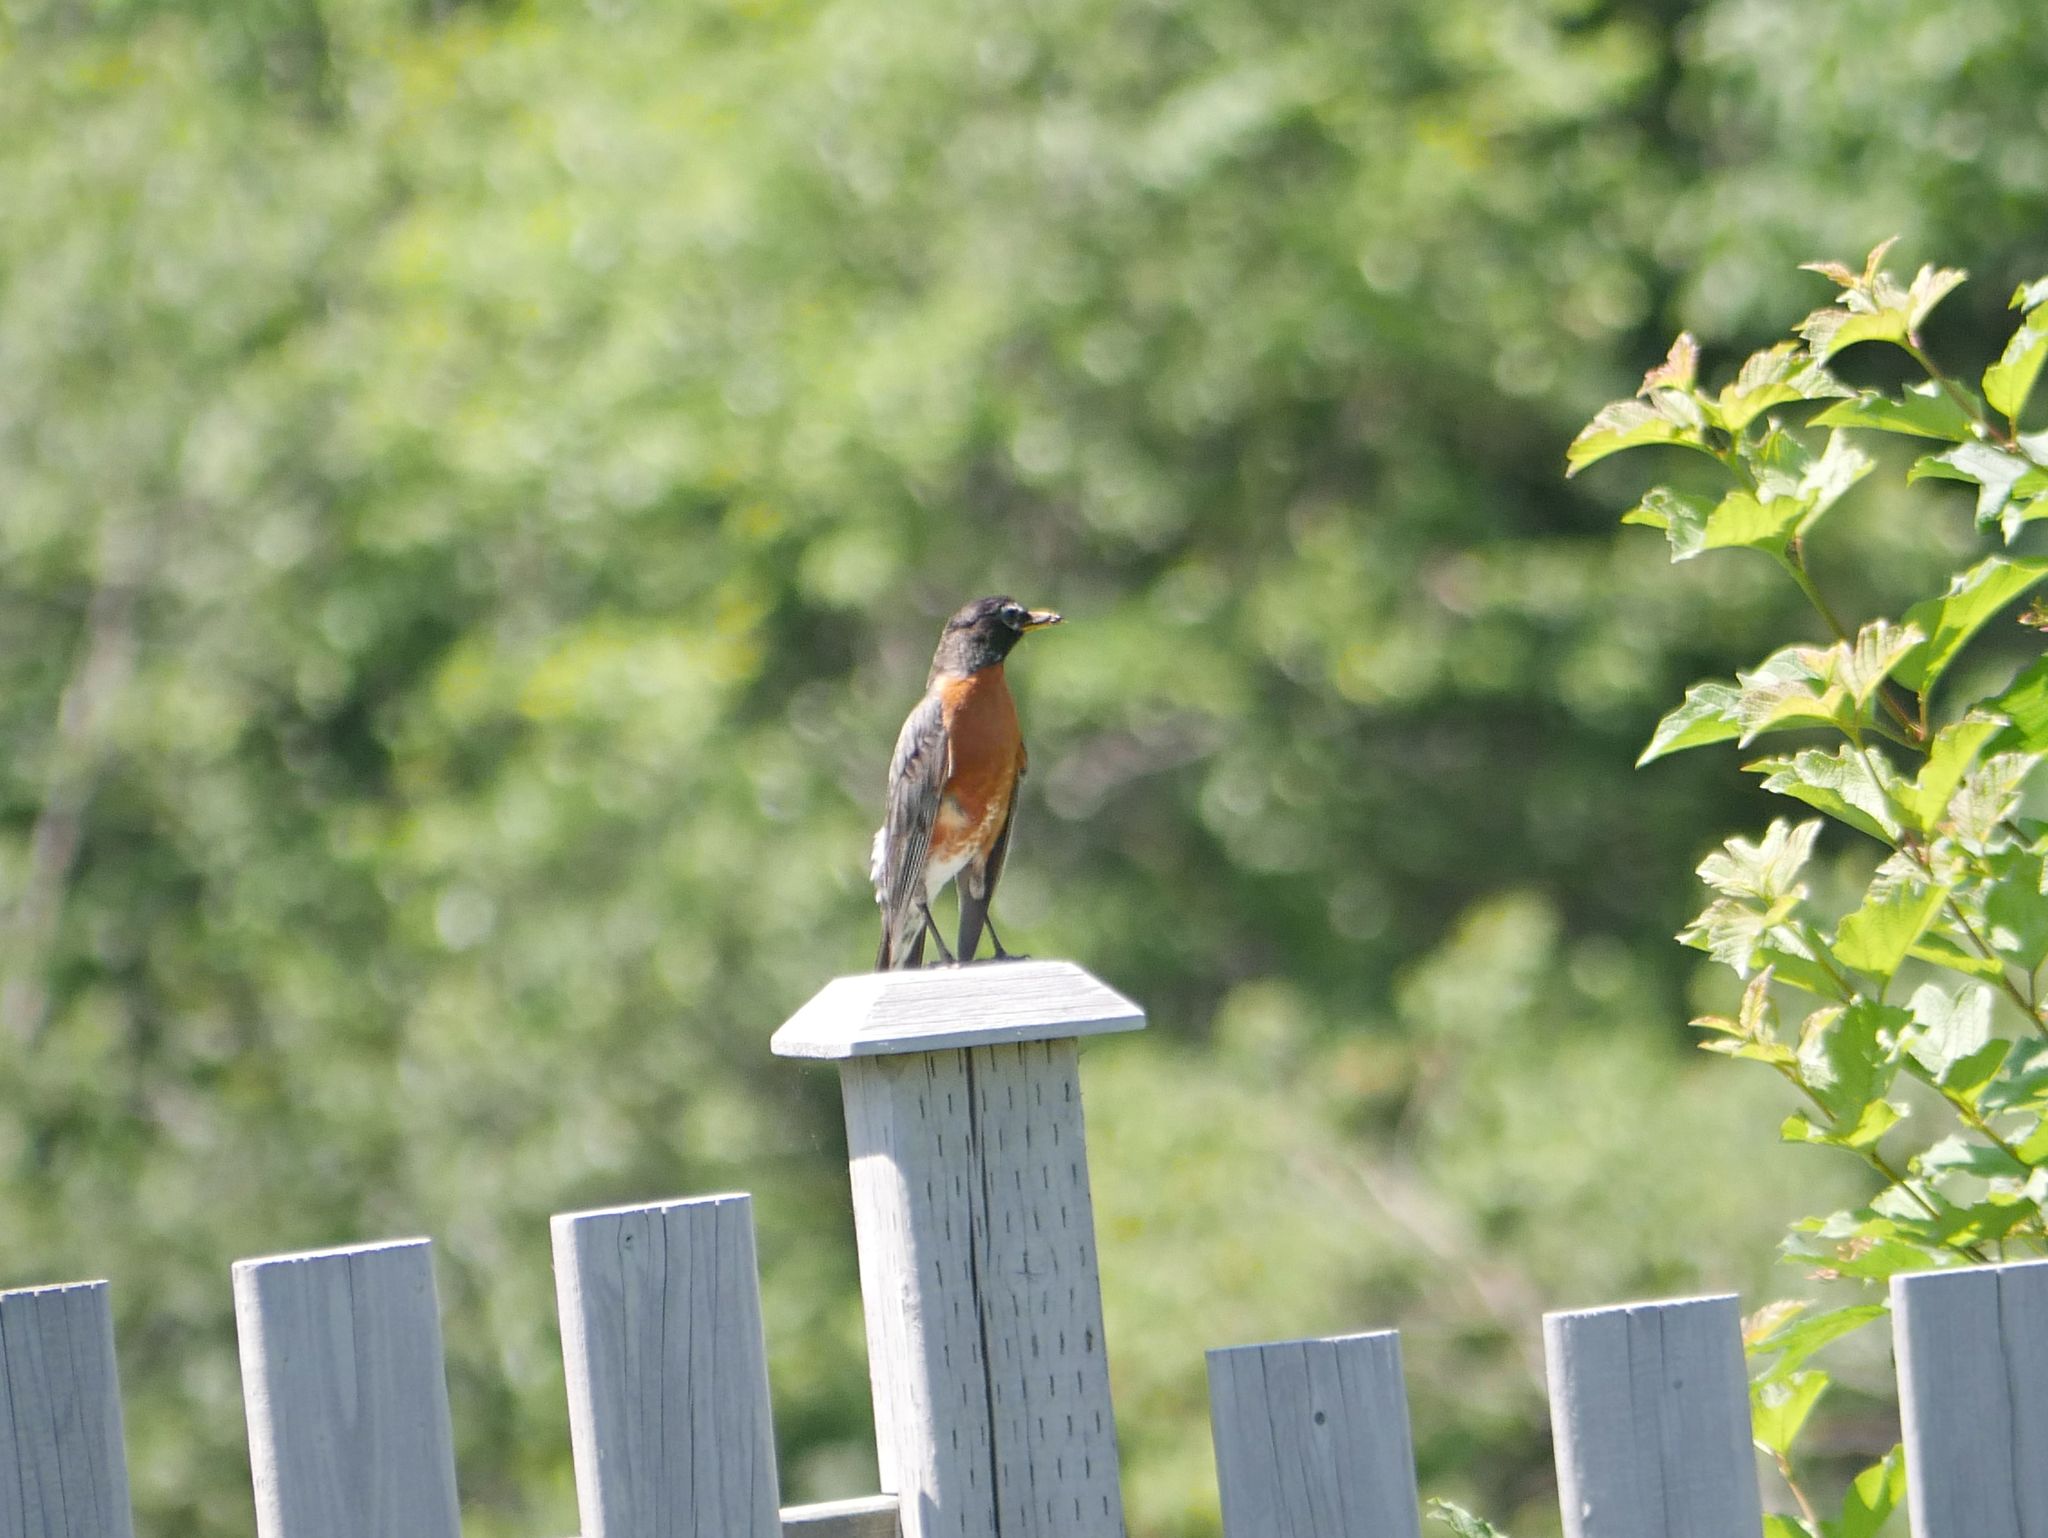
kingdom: Animalia
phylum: Chordata
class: Aves
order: Passeriformes
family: Turdidae
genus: Turdus
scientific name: Turdus migratorius
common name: American robin
